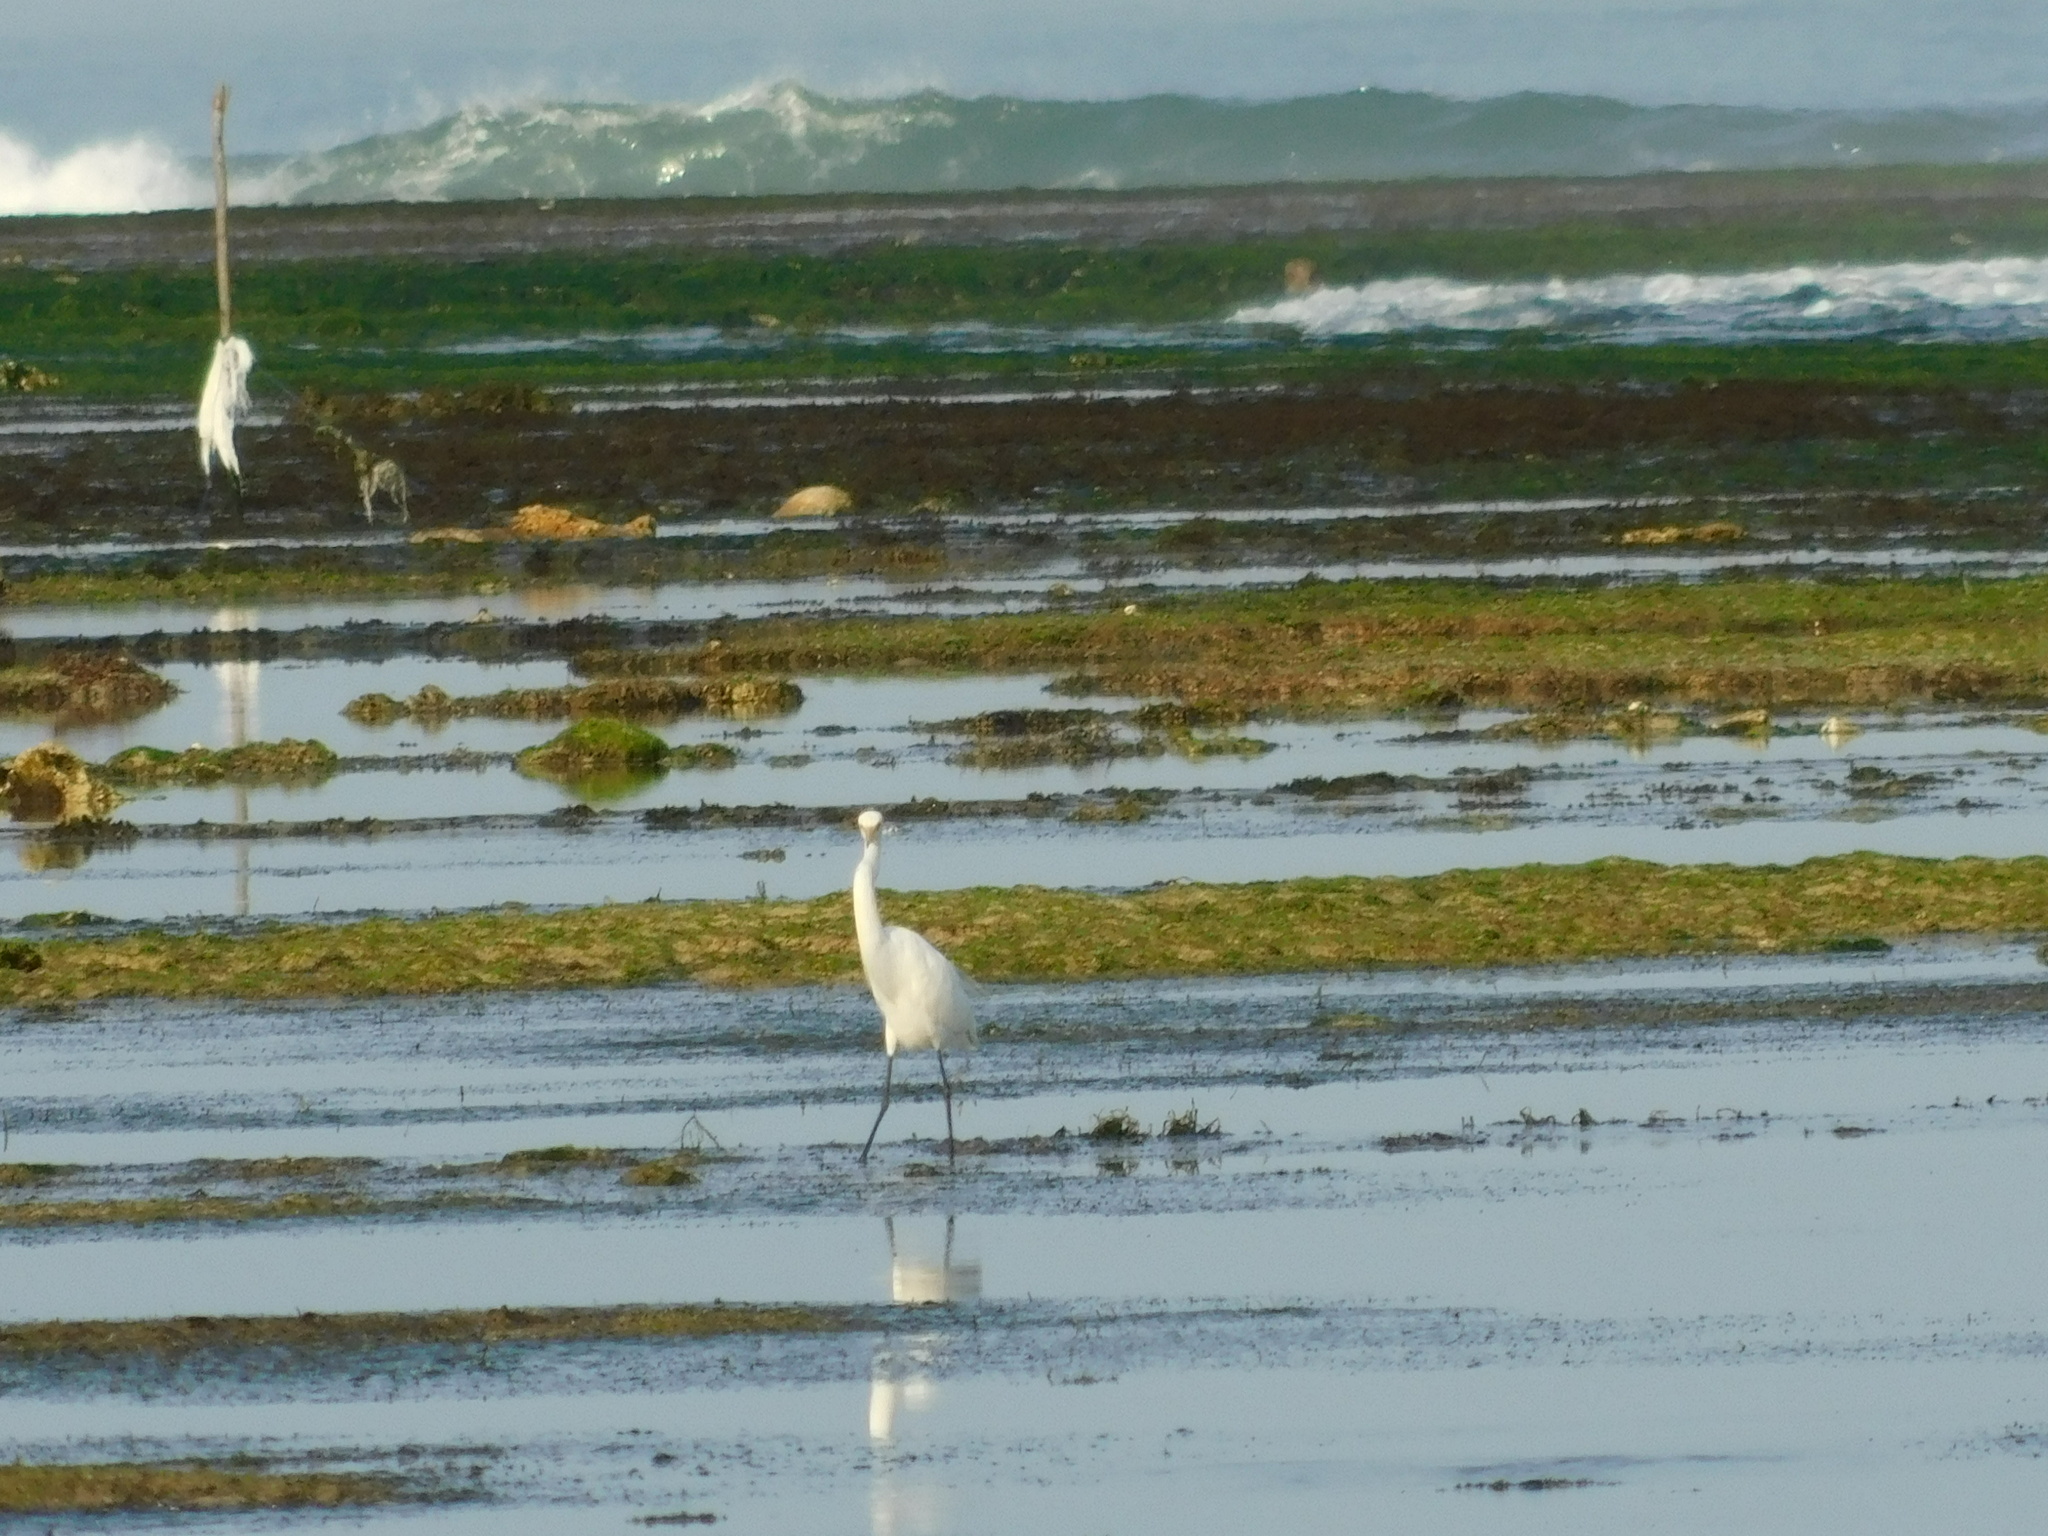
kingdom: Animalia
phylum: Chordata
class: Aves
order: Pelecaniformes
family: Ardeidae
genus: Egretta
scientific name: Egretta intermedia
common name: Intermediate egret
